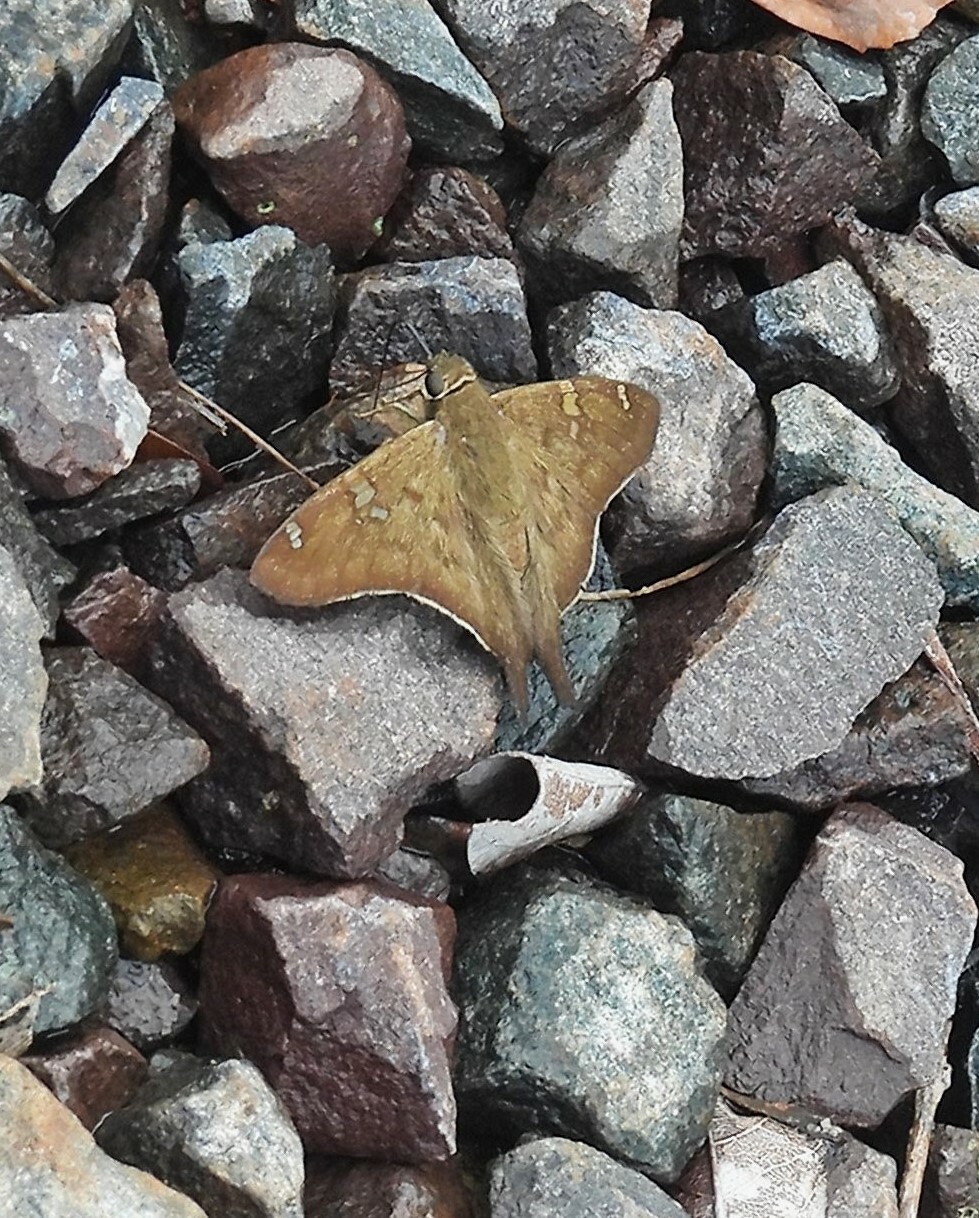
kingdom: Animalia
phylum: Arthropoda
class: Insecta
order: Lepidoptera
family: Hesperiidae
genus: Polythrix
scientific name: Polythrix octomaculata
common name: Eight-spotted longtail
